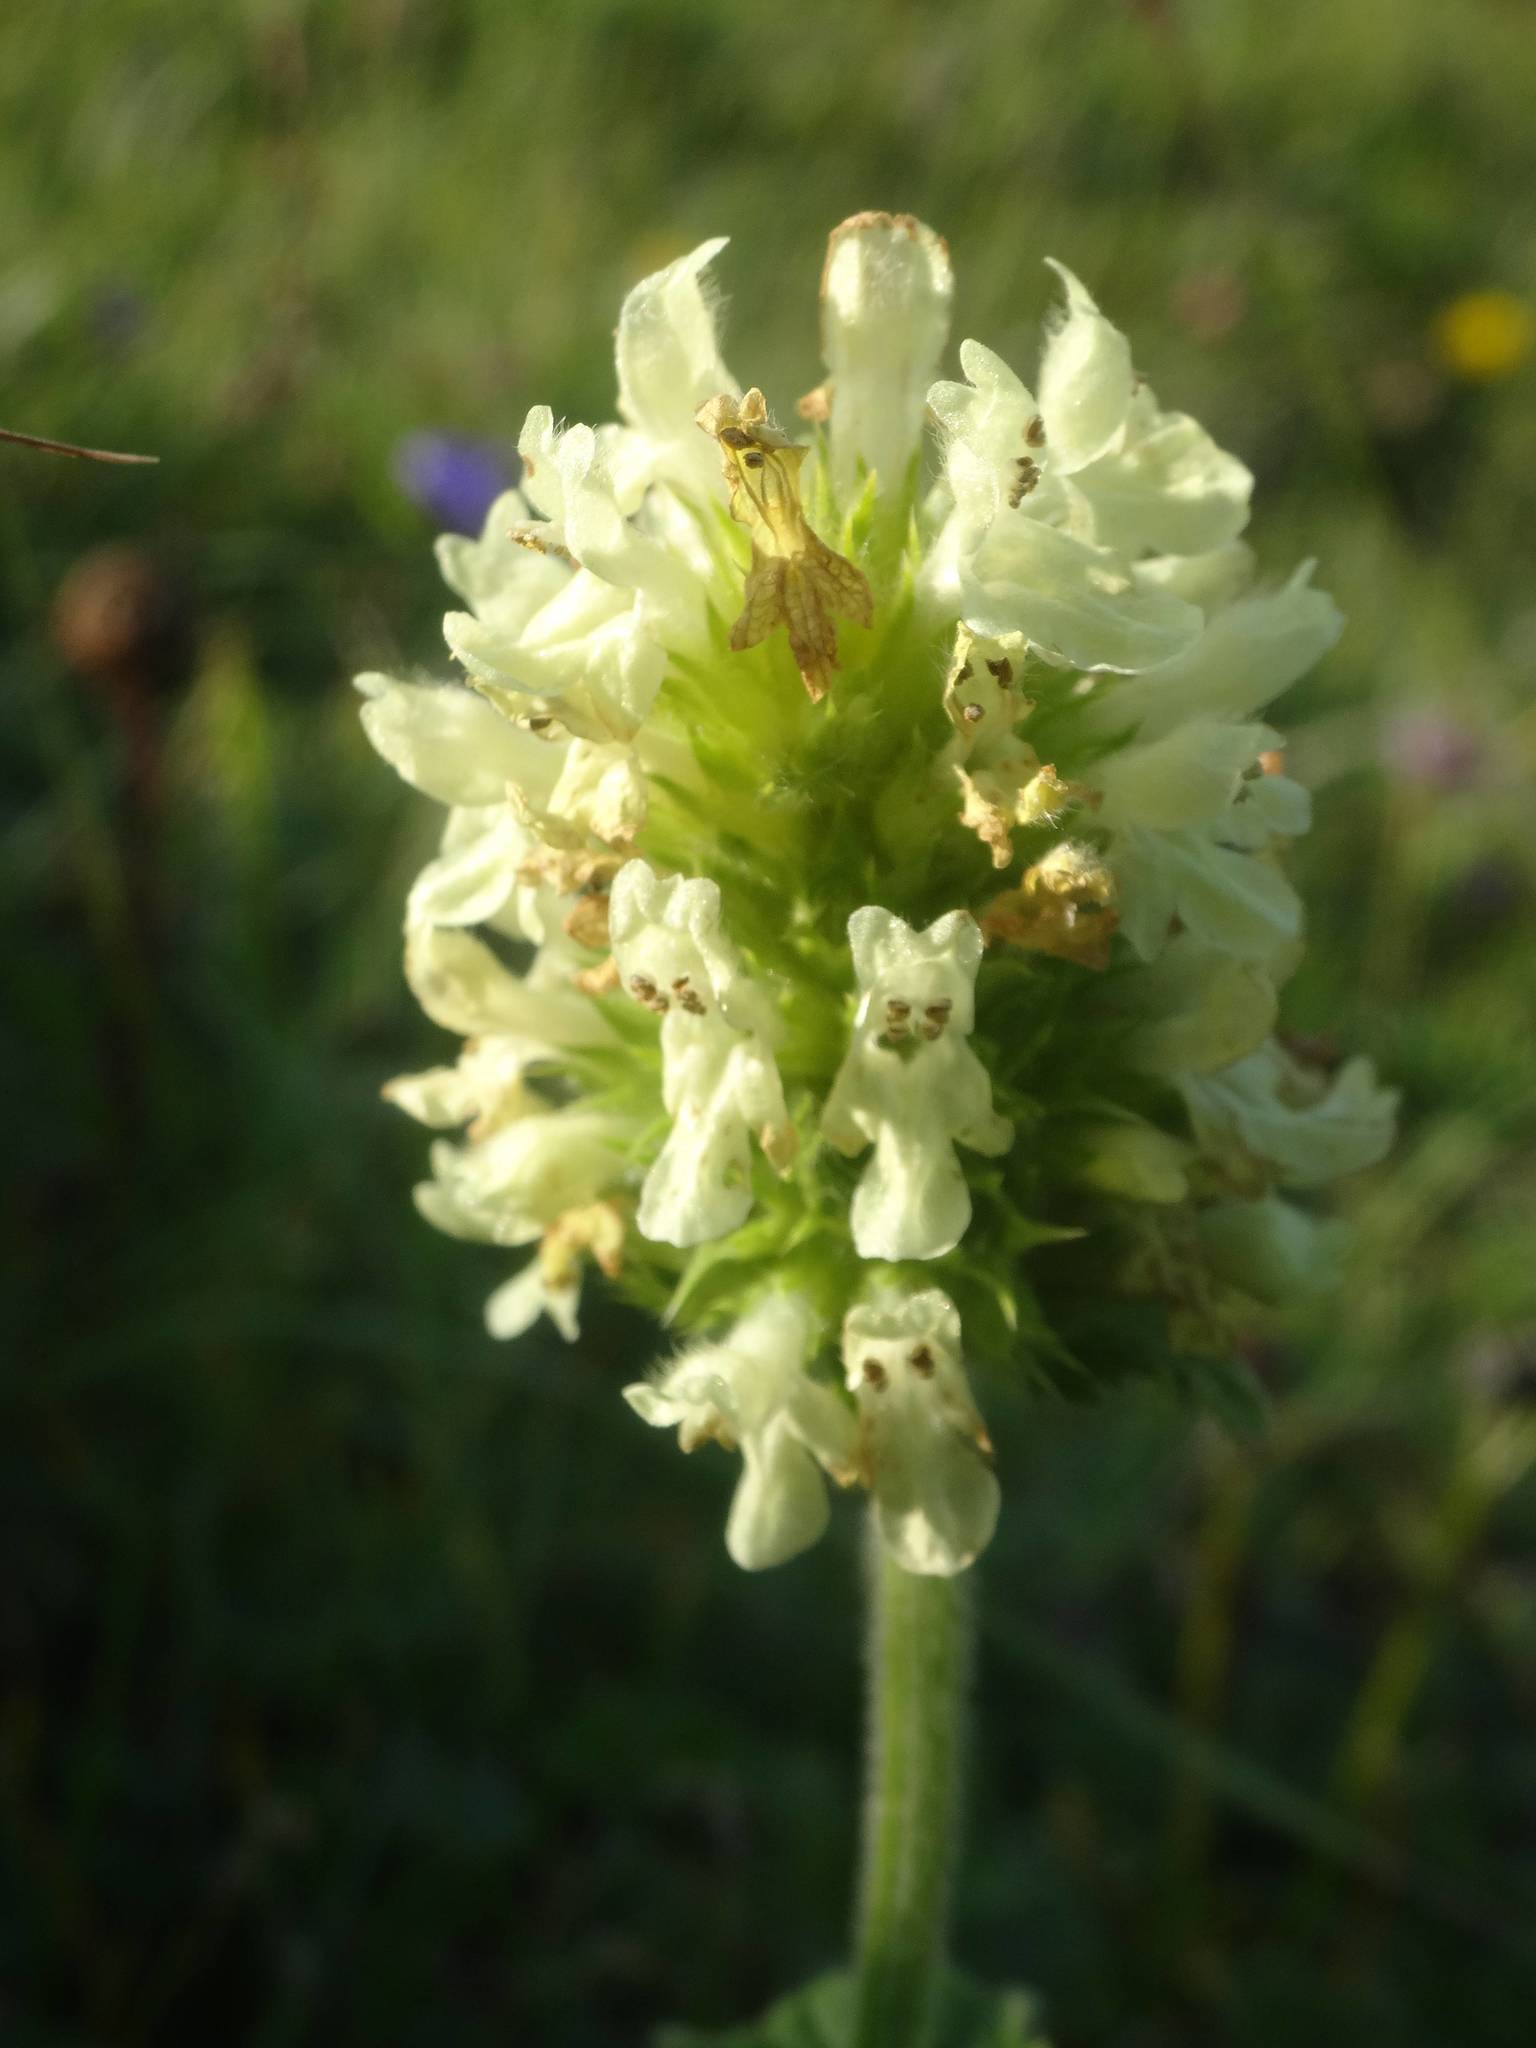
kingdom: Plantae
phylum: Tracheophyta
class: Magnoliopsida
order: Lamiales
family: Lamiaceae
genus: Betonica
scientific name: Betonica alopecuros
